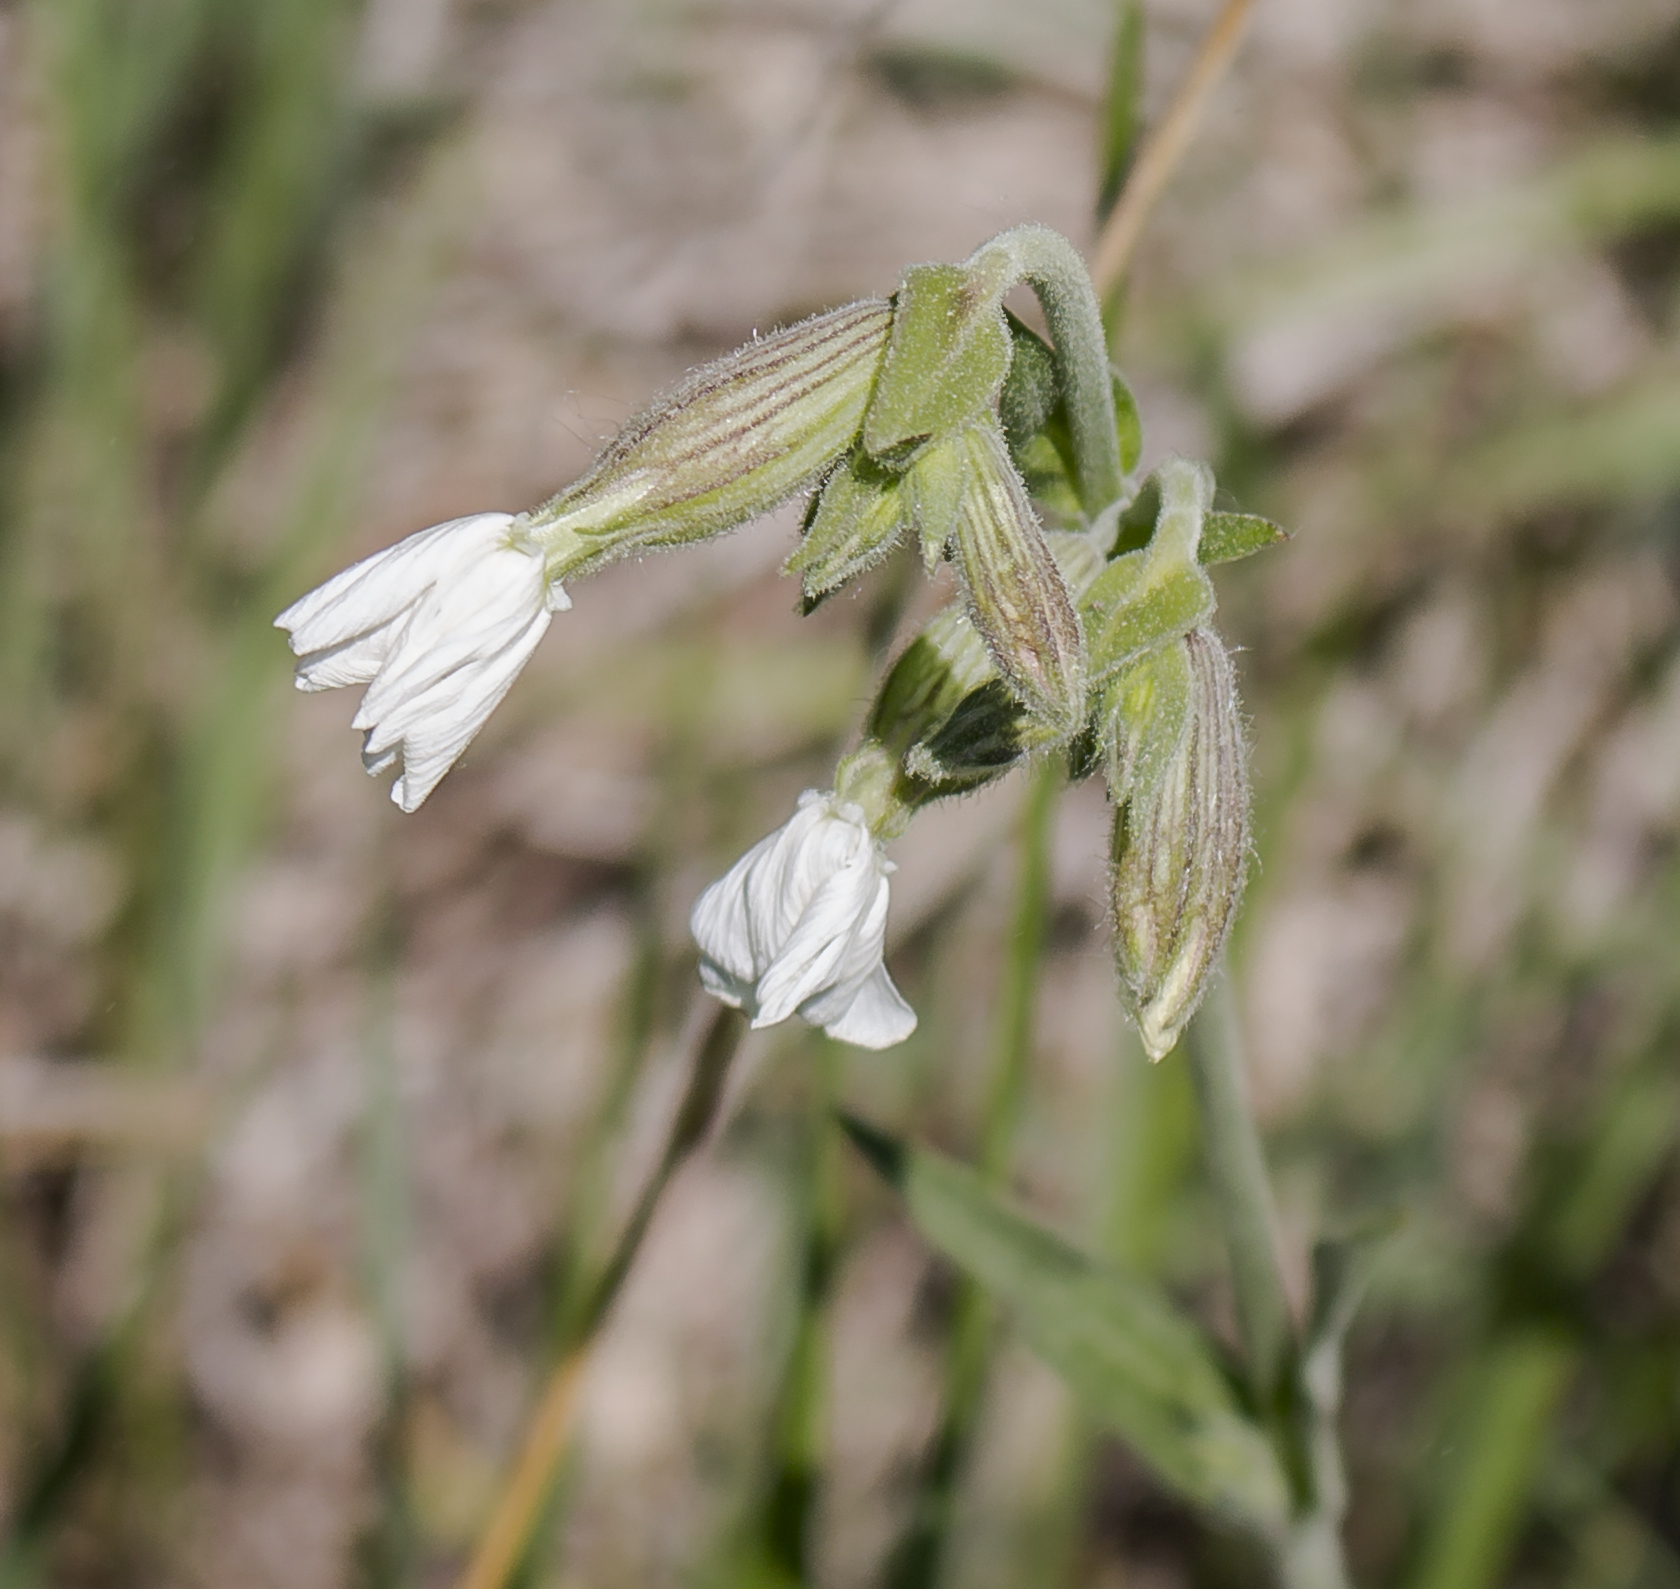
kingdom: Plantae
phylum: Tracheophyta
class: Magnoliopsida
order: Caryophyllales
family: Caryophyllaceae
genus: Silene
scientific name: Silene latifolia
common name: White campion
